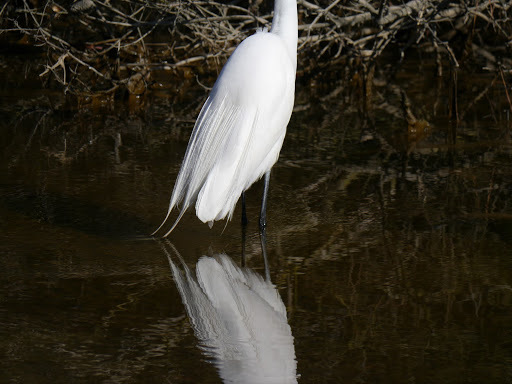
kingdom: Animalia
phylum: Chordata
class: Aves
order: Pelecaniformes
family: Ardeidae
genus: Ardea
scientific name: Ardea alba
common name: Great egret
